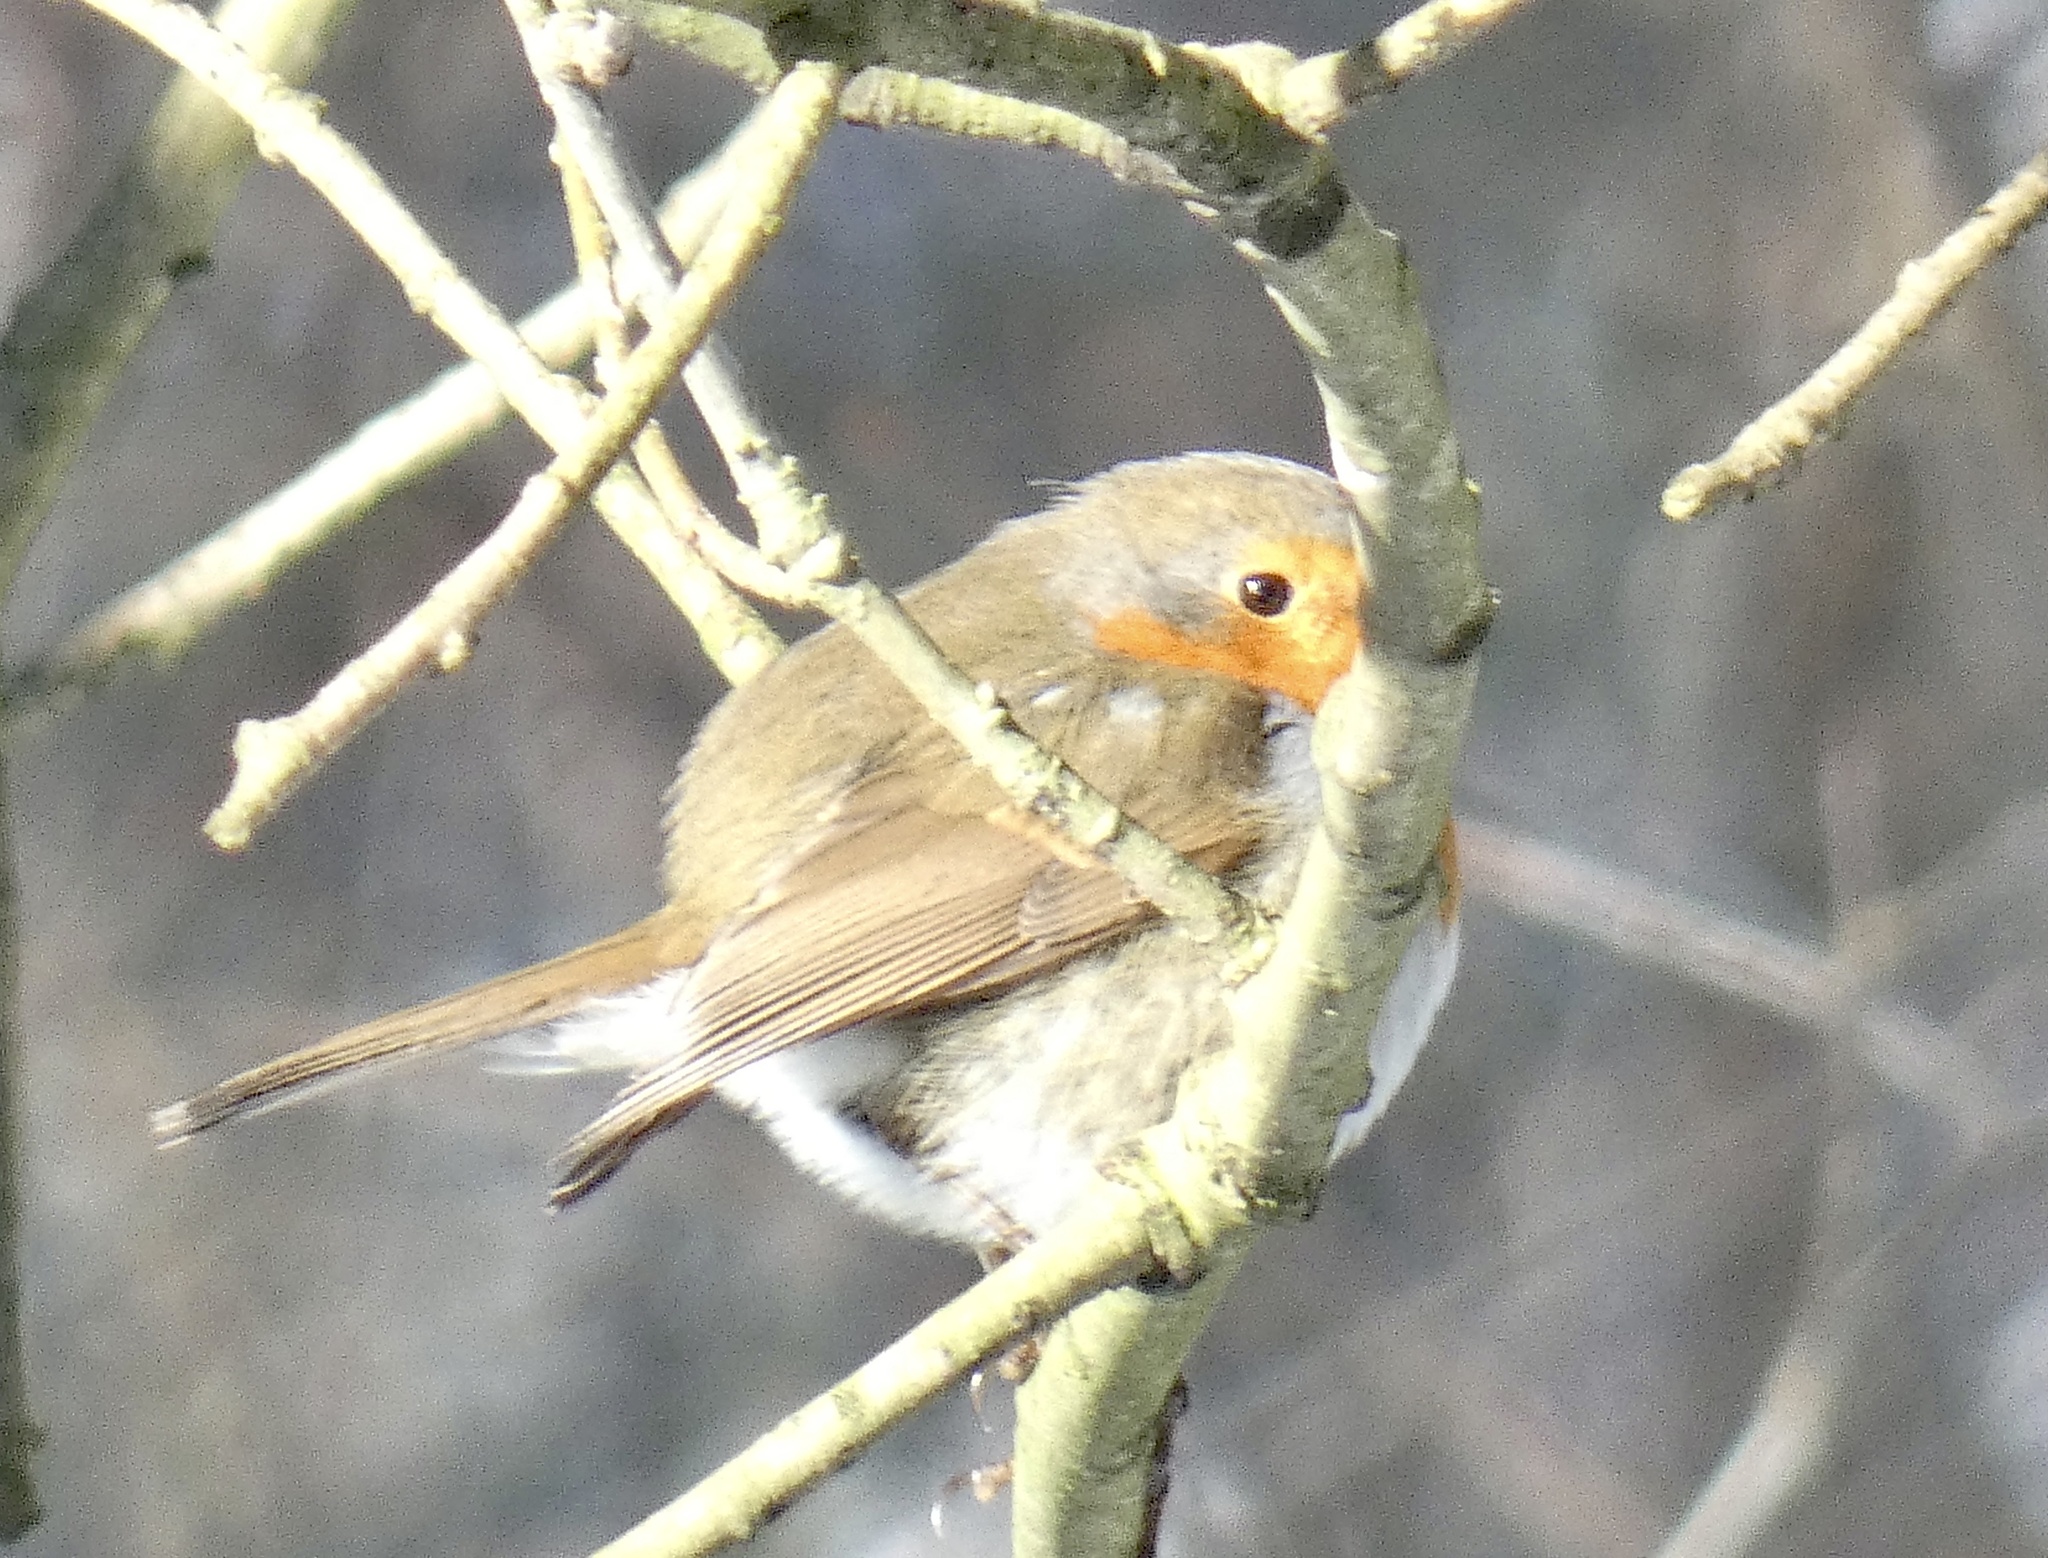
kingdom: Animalia
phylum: Chordata
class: Aves
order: Passeriformes
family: Muscicapidae
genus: Erithacus
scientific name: Erithacus rubecula
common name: European robin
